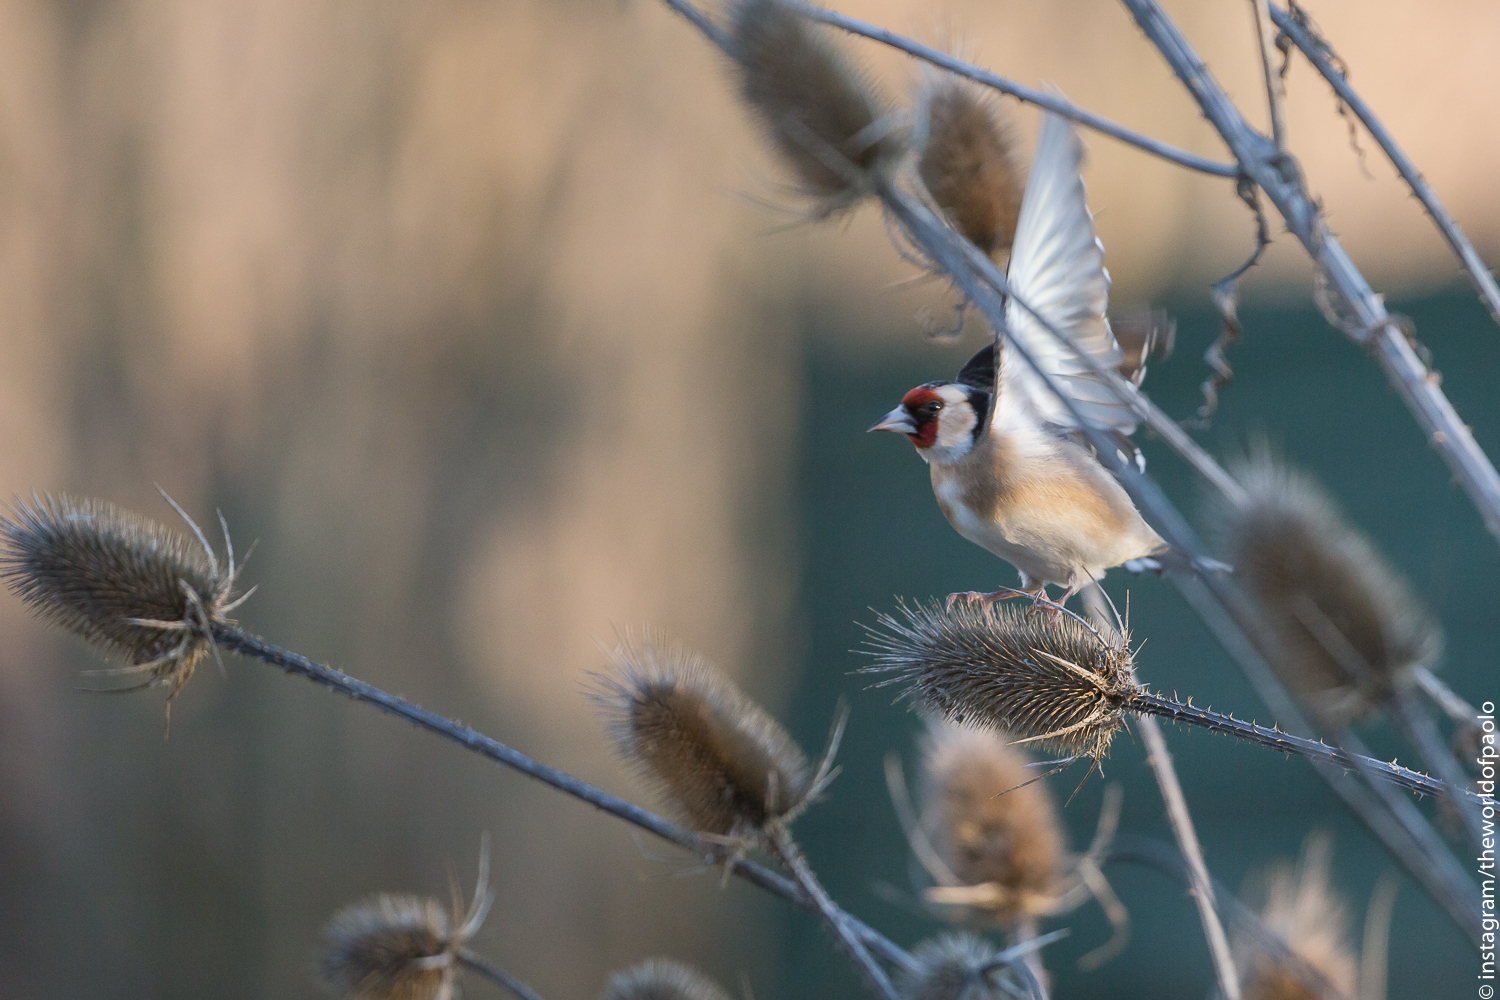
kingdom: Animalia
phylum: Chordata
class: Aves
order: Passeriformes
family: Fringillidae
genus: Carduelis
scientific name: Carduelis carduelis
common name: European goldfinch
